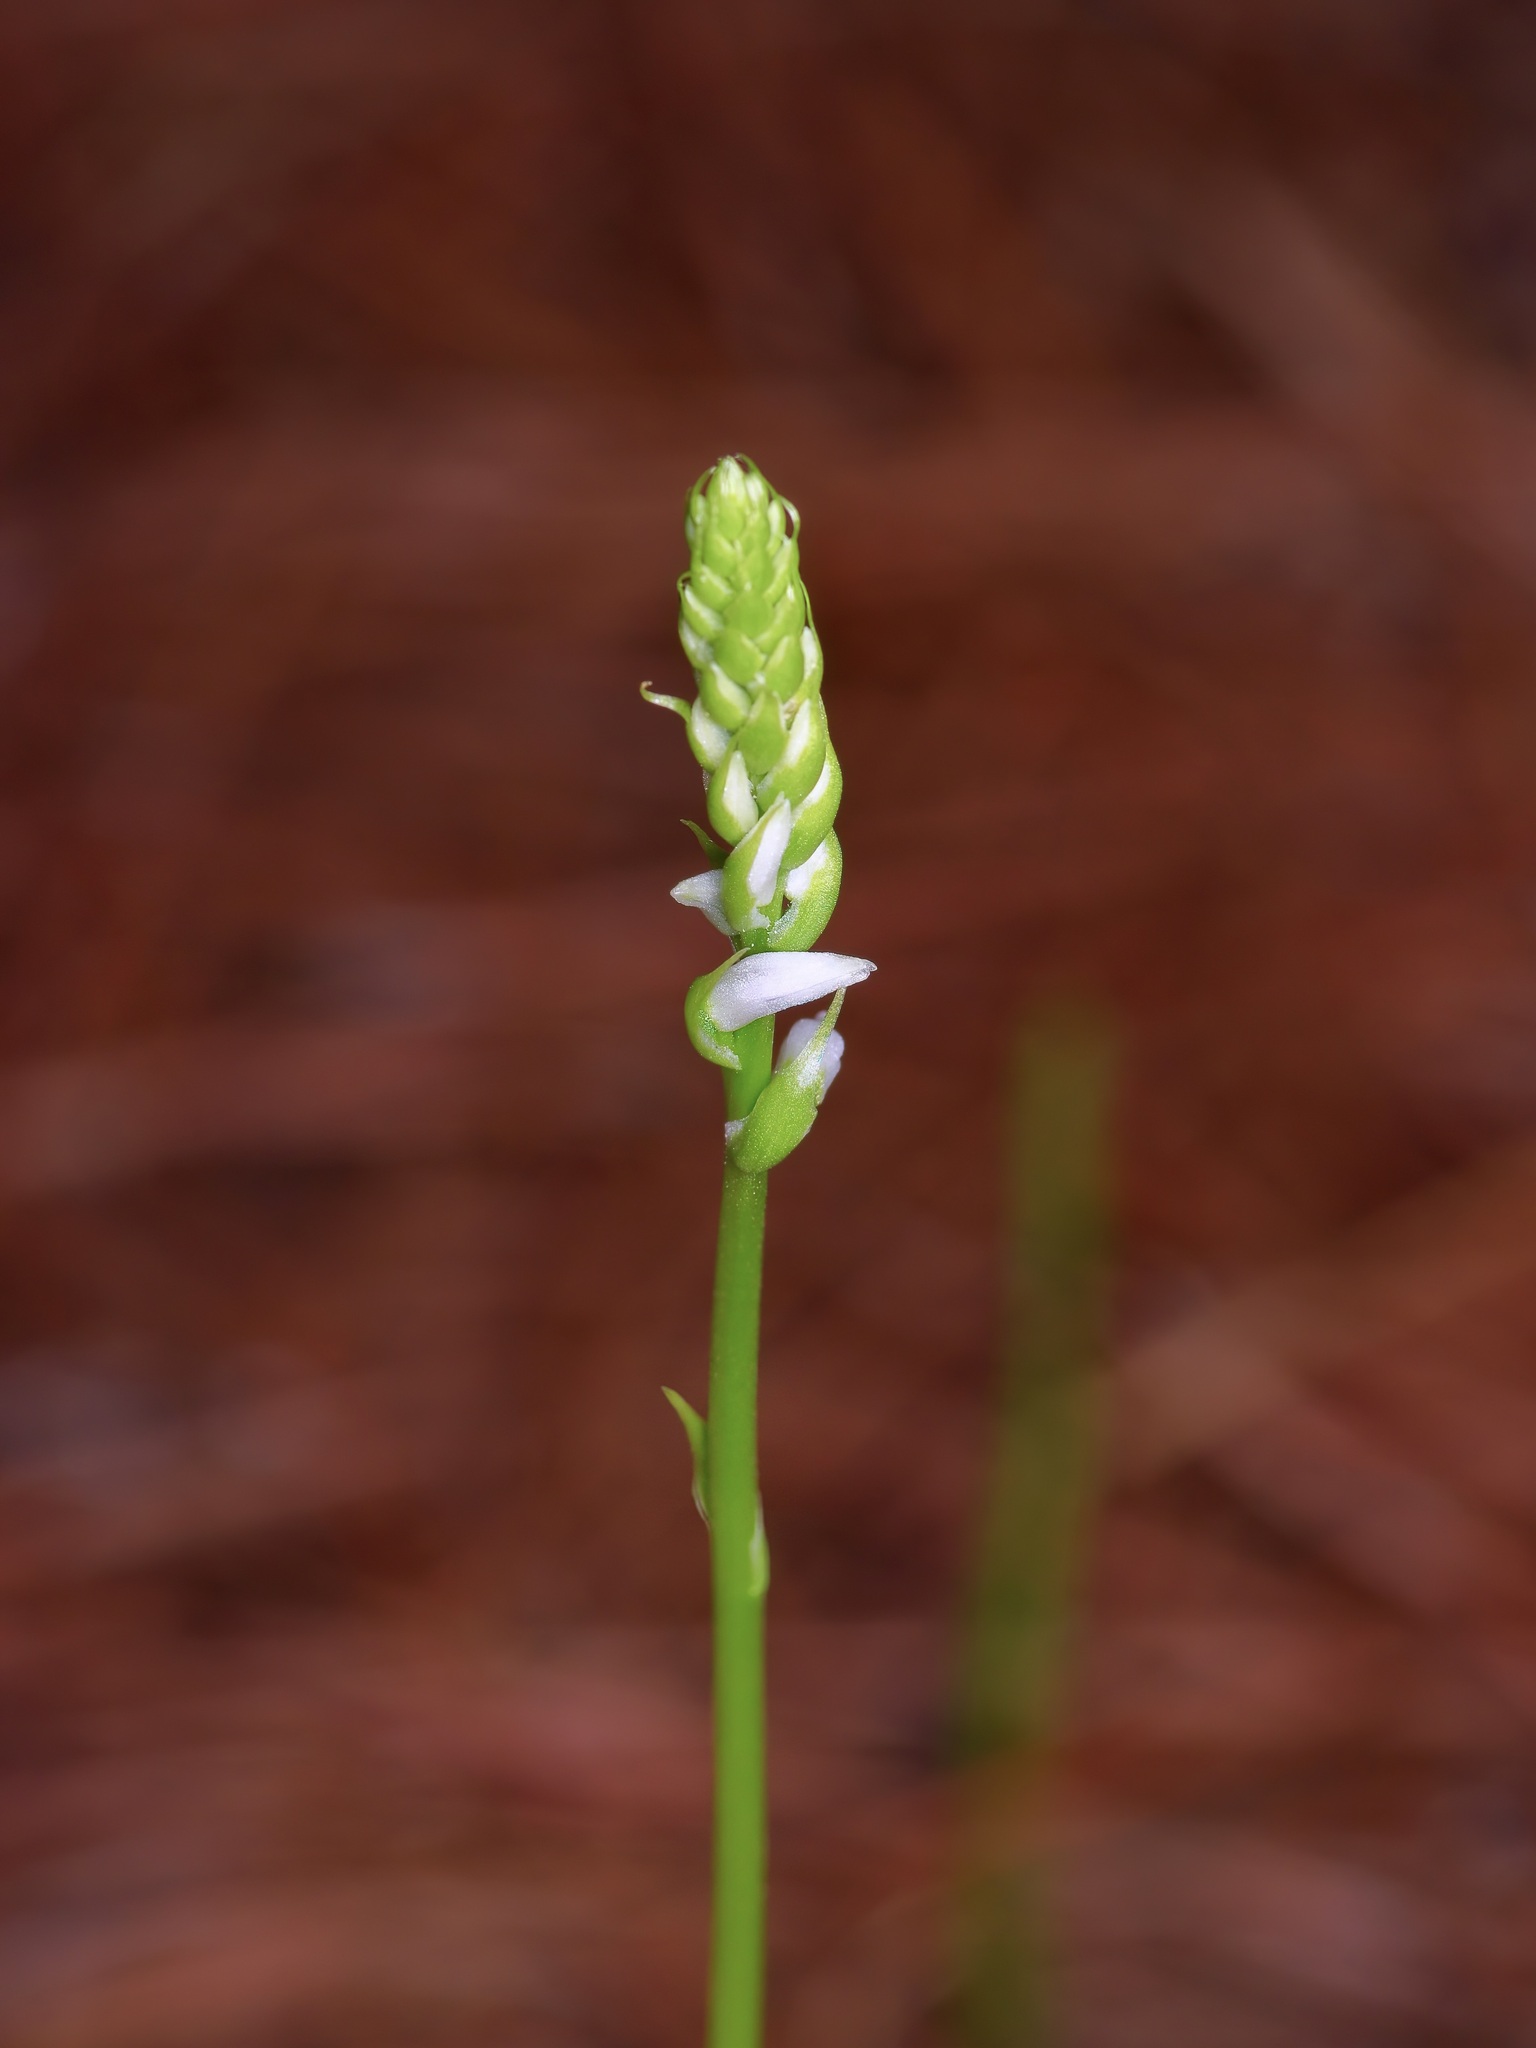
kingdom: Plantae
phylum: Tracheophyta
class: Liliopsida
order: Asparagales
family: Orchidaceae
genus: Spiranthes
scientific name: Spiranthes lacera
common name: Northern slender ladies'-tresses
